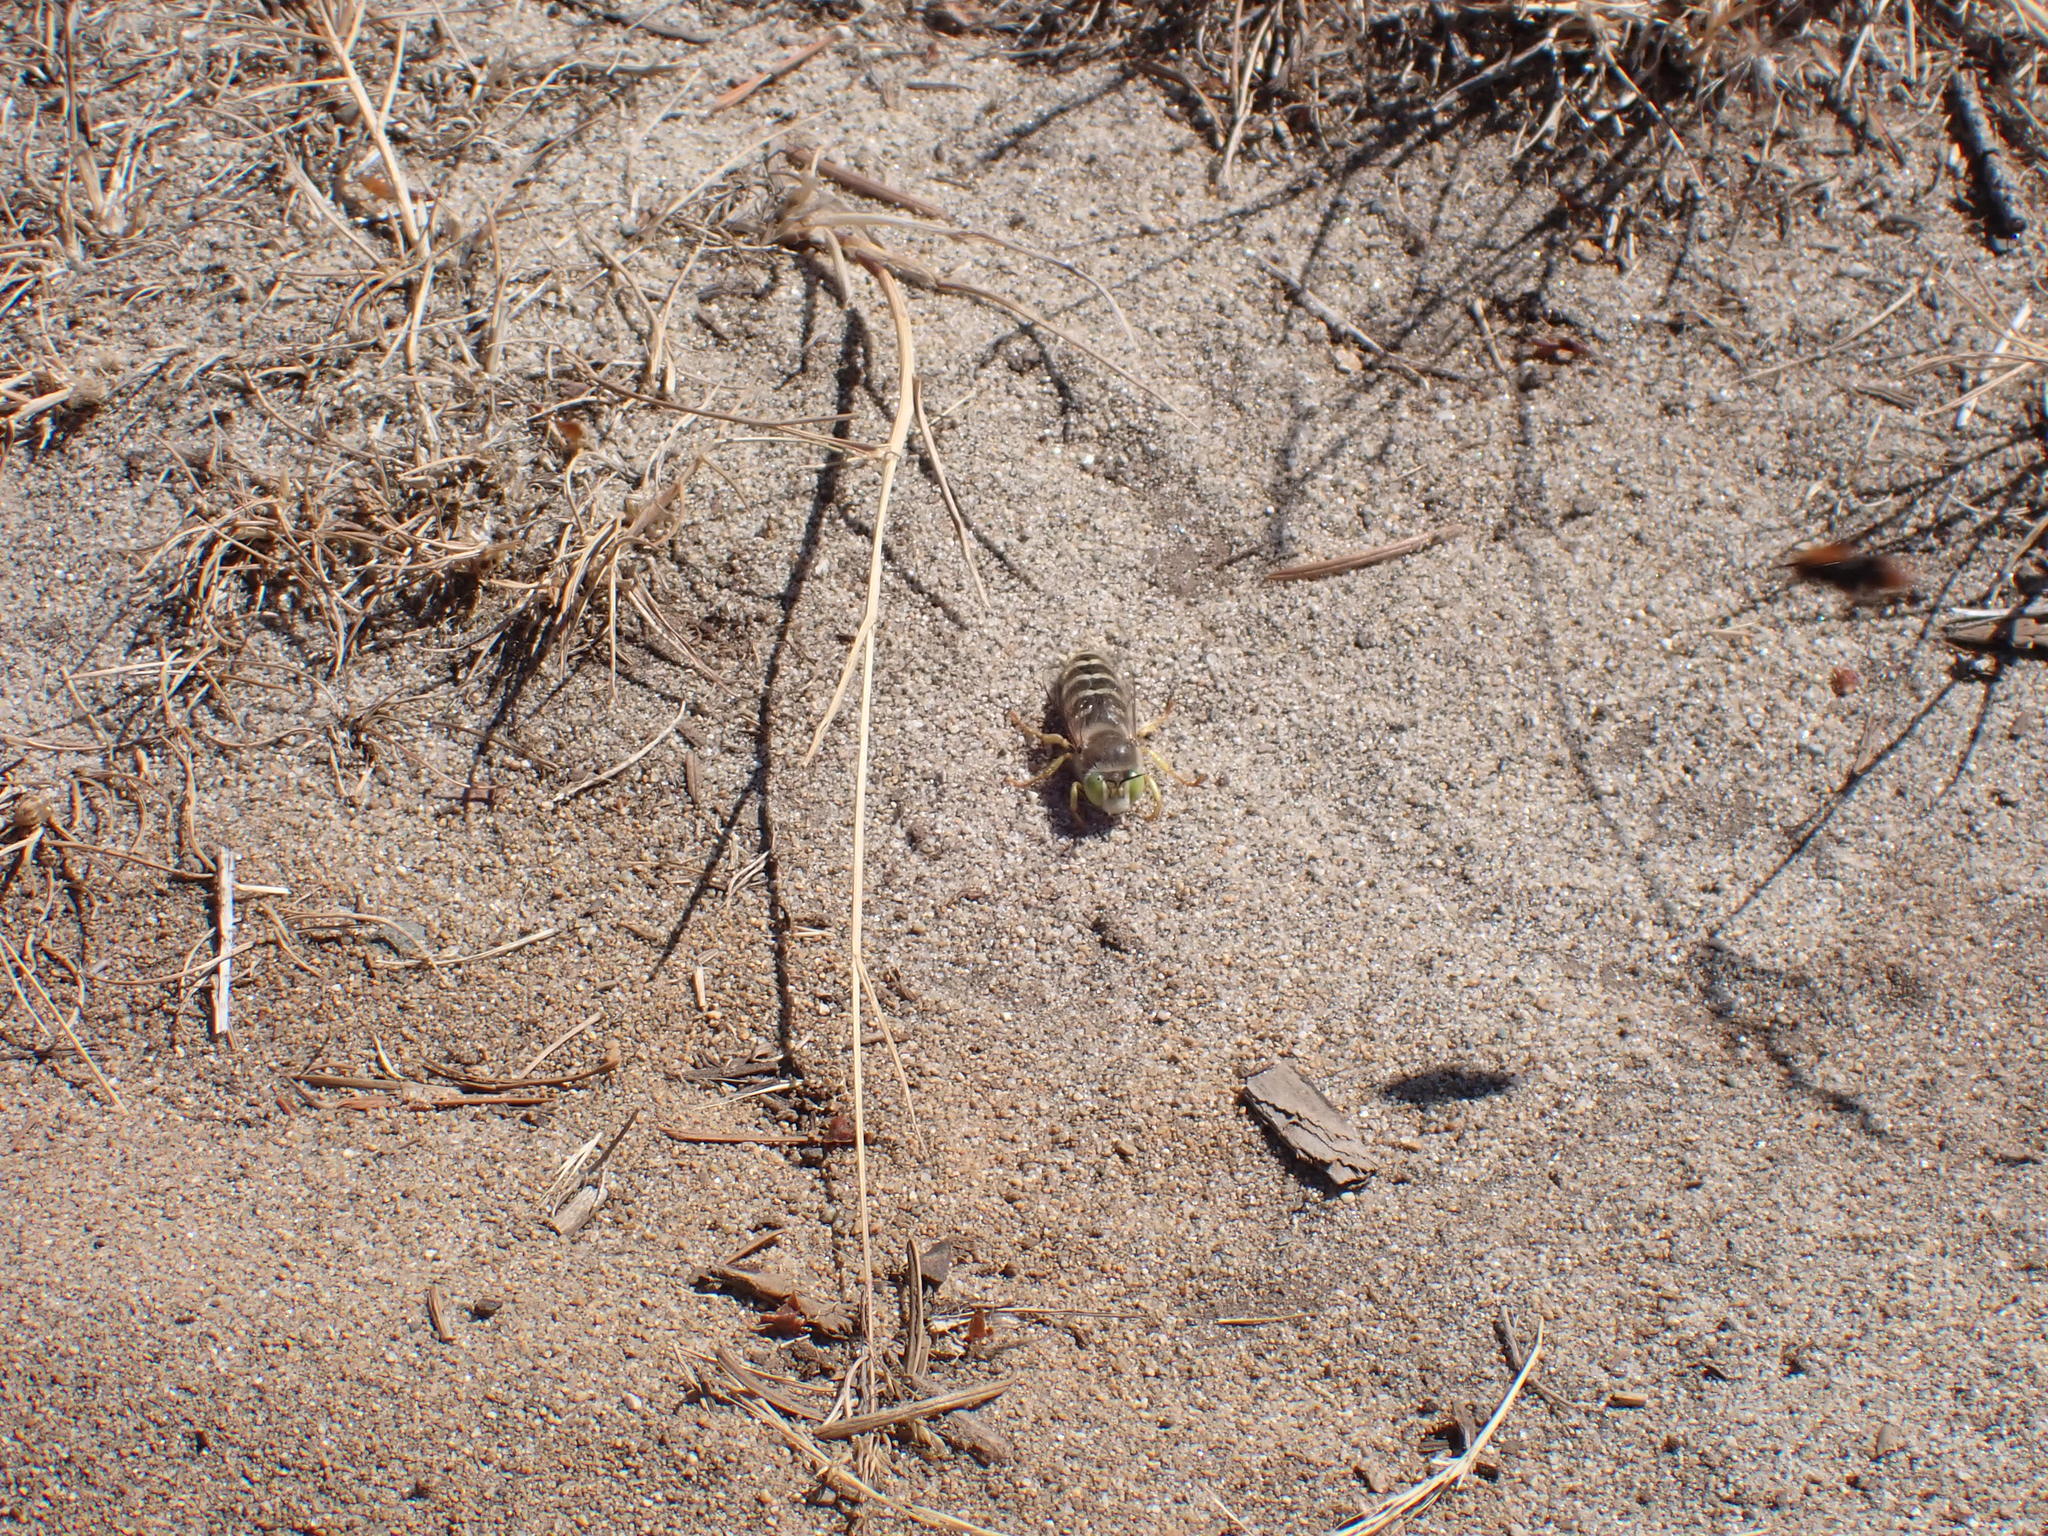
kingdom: Animalia
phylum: Arthropoda
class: Insecta
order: Hymenoptera
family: Crabronidae
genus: Bembix
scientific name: Bembix americana
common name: American sand wasp
